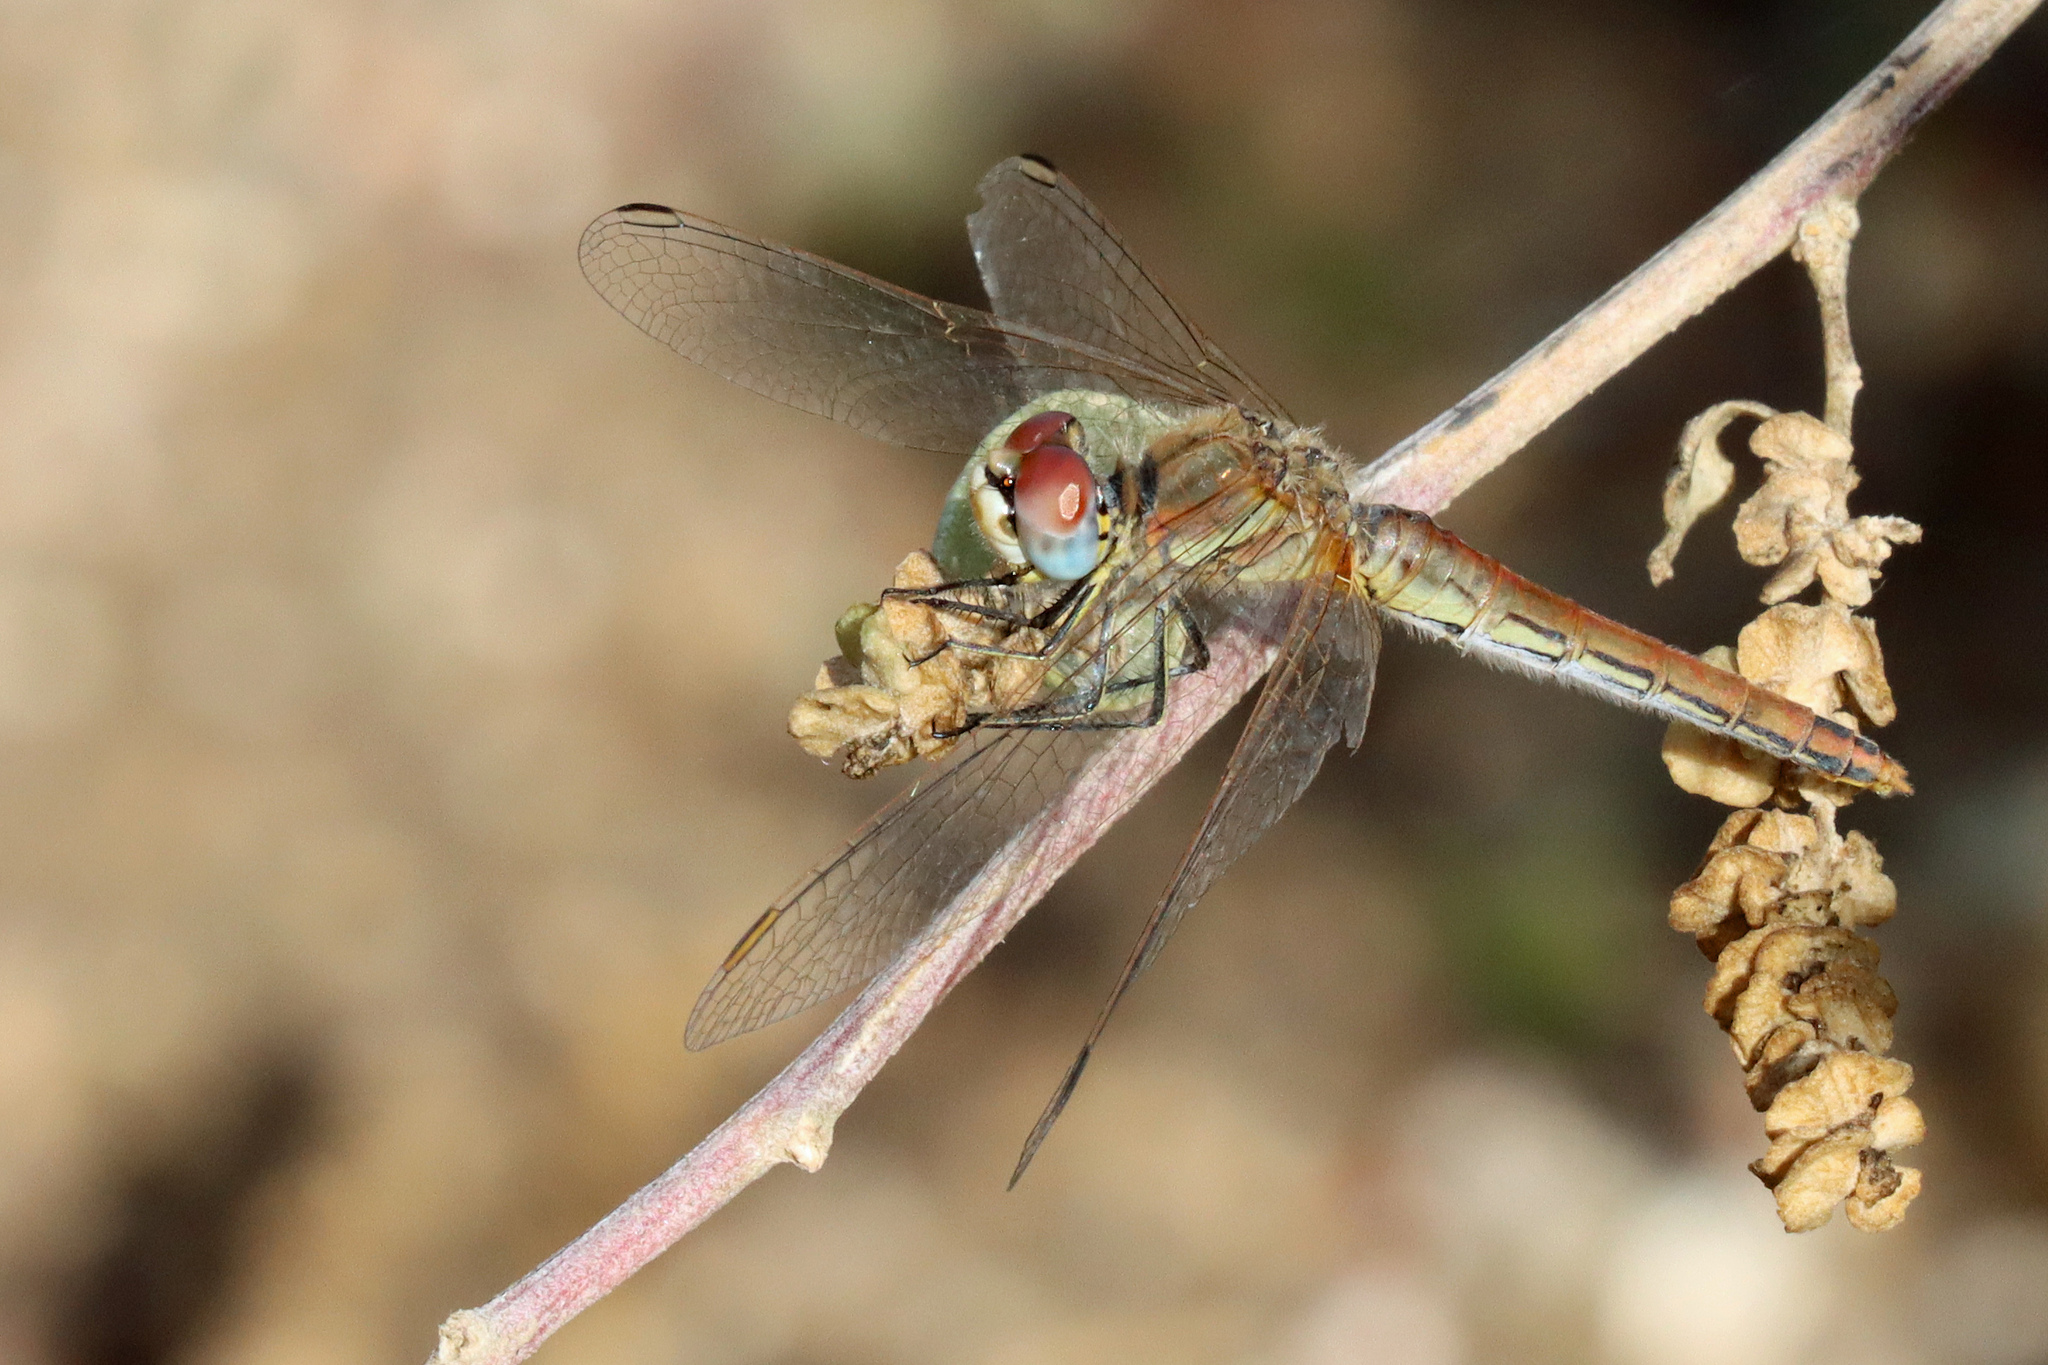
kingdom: Animalia
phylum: Arthropoda
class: Insecta
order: Odonata
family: Libellulidae
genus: Sympetrum
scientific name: Sympetrum fonscolombii
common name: Red-veined darter
